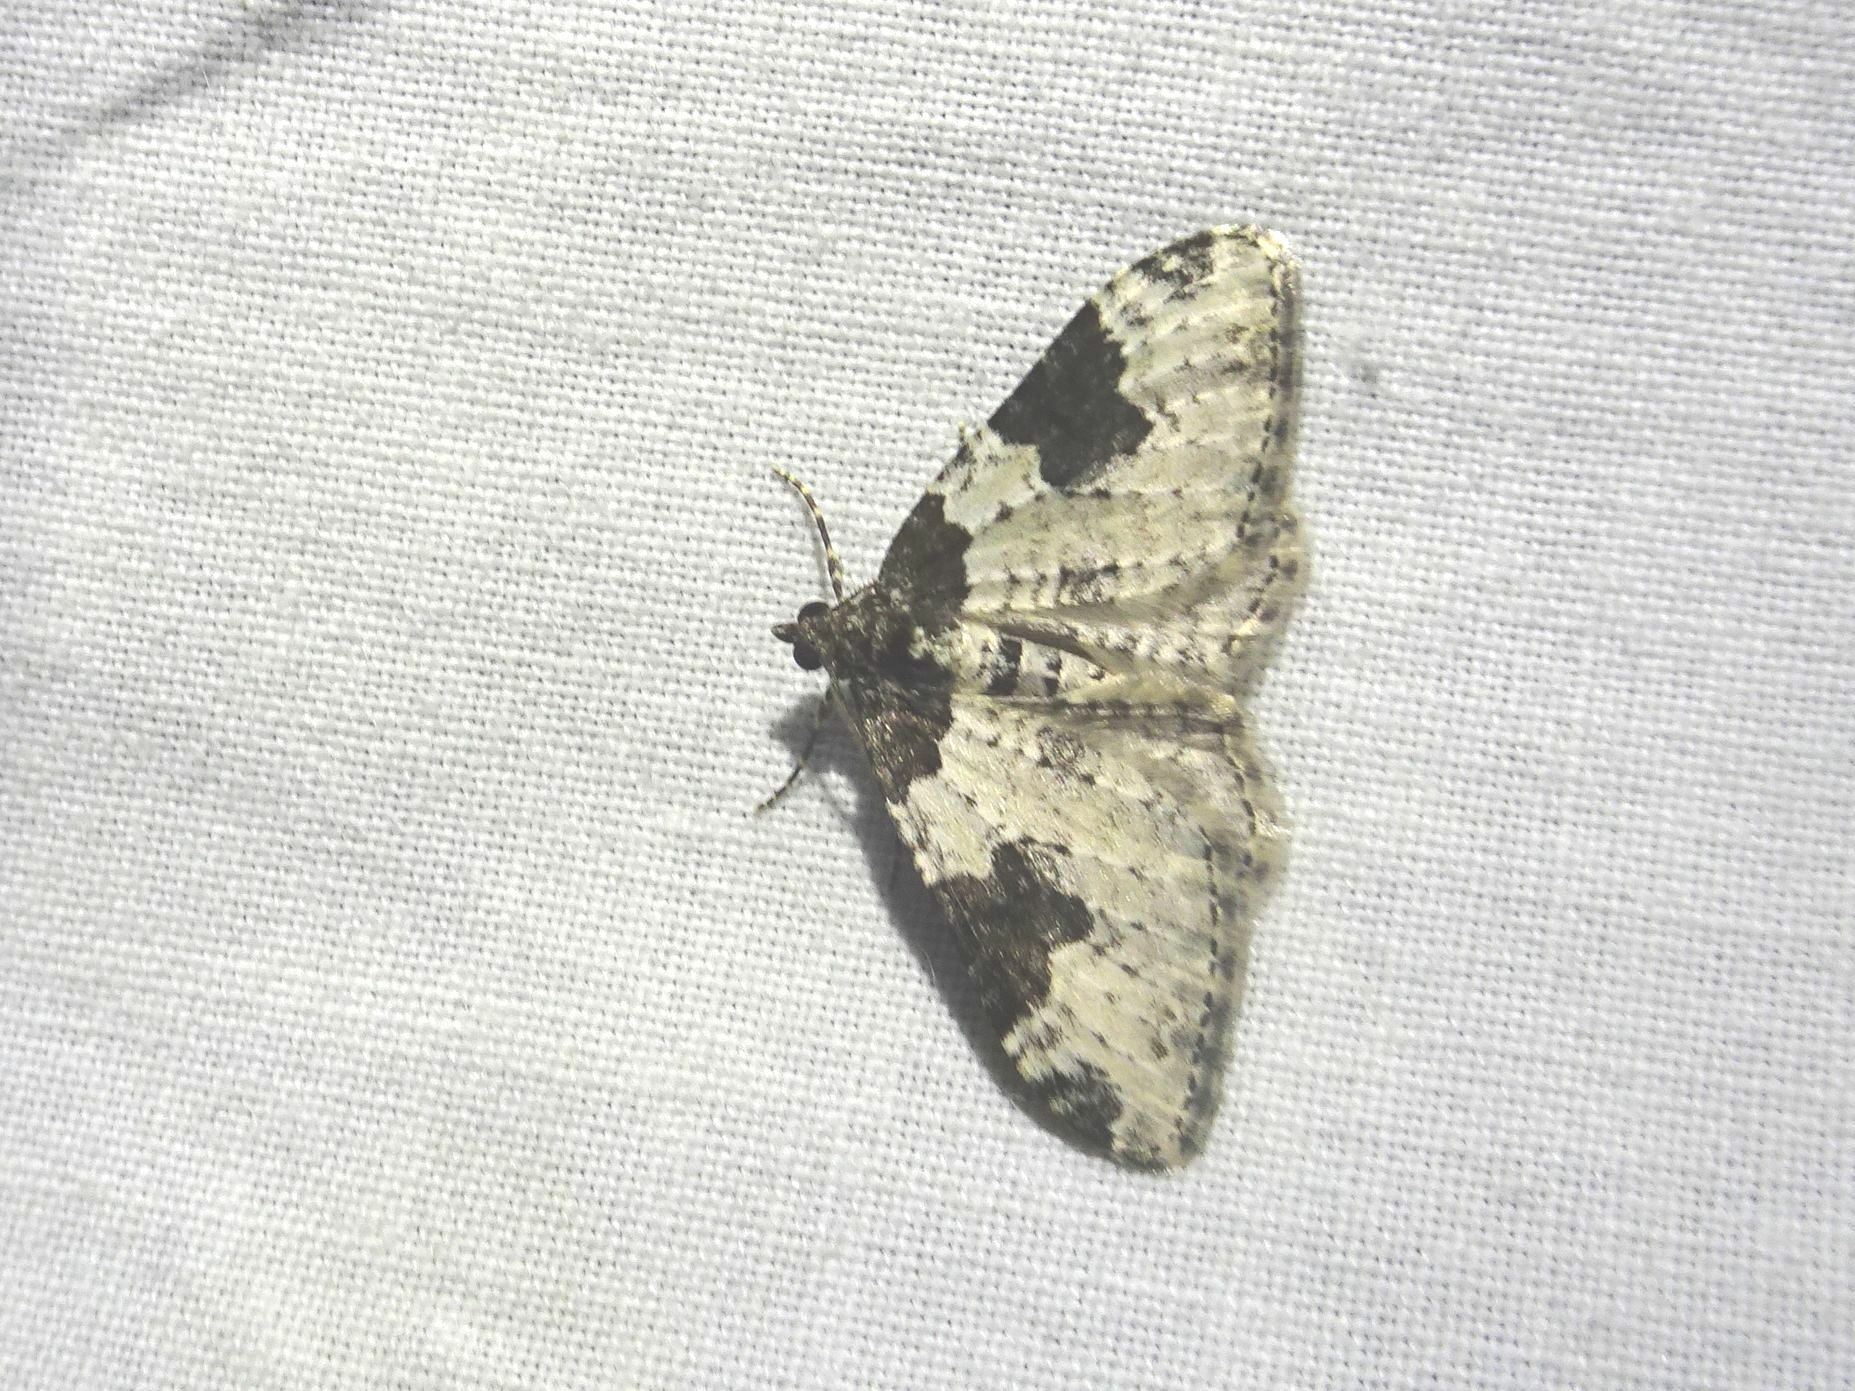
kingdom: Animalia
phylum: Arthropoda
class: Insecta
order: Lepidoptera
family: Geometridae
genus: Xanthorhoe
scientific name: Xanthorhoe fluctuata
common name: Garden carpet
